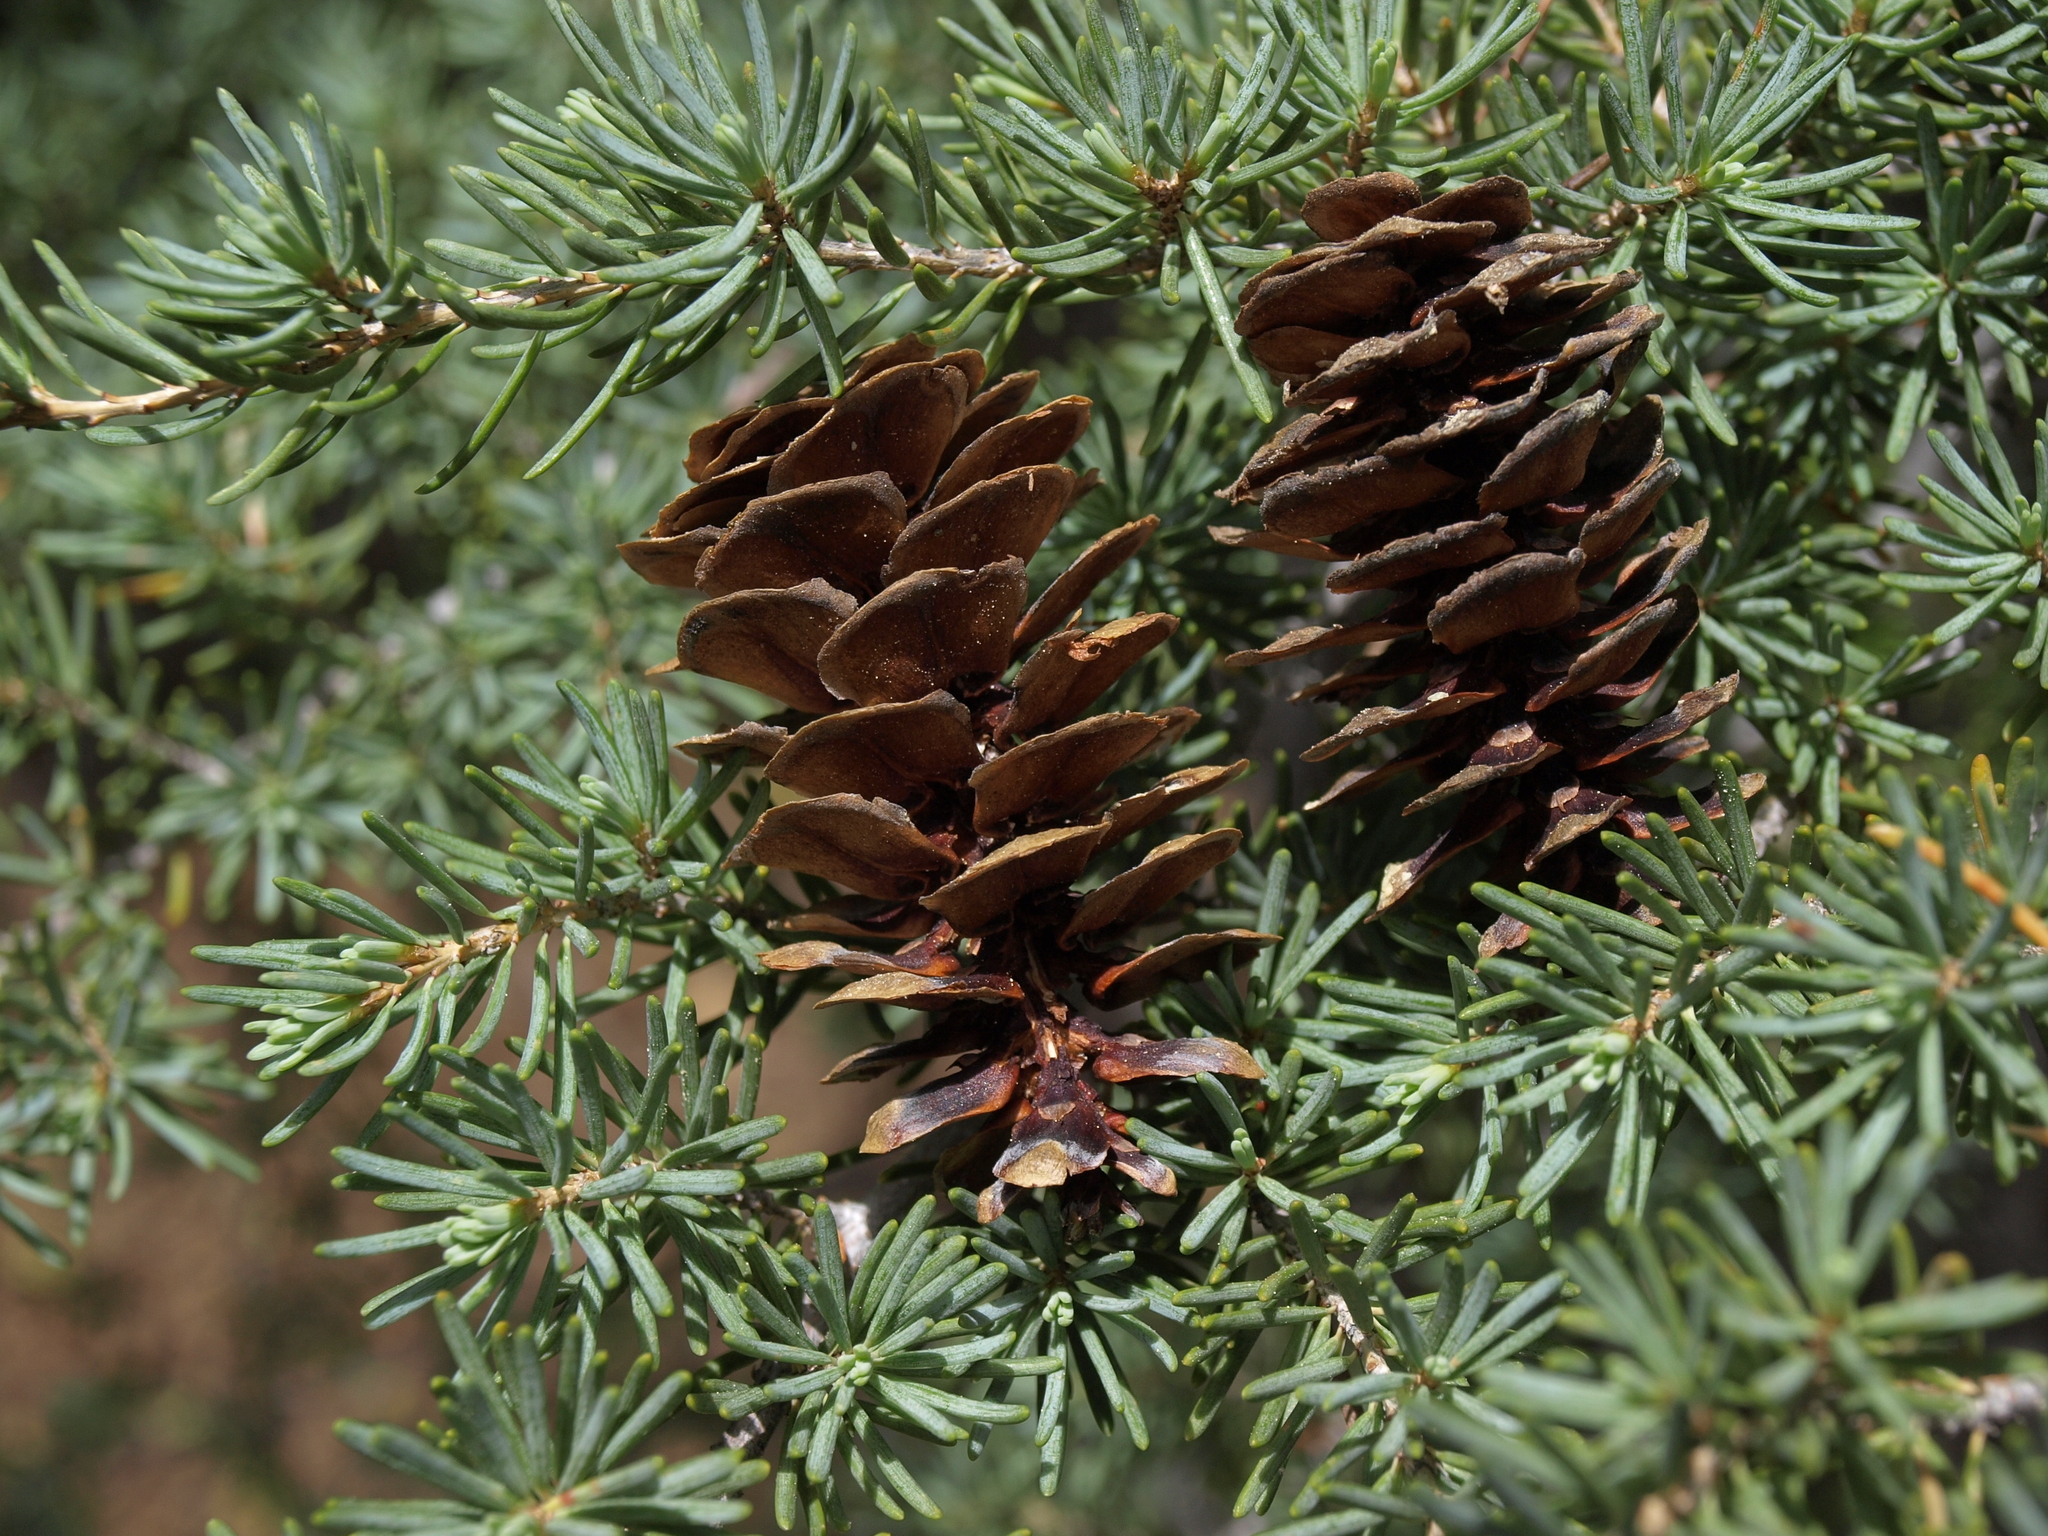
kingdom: Plantae
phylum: Tracheophyta
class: Pinopsida
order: Pinales
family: Pinaceae
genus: Tsuga
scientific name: Tsuga mertensiana
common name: Mountain hemlock
